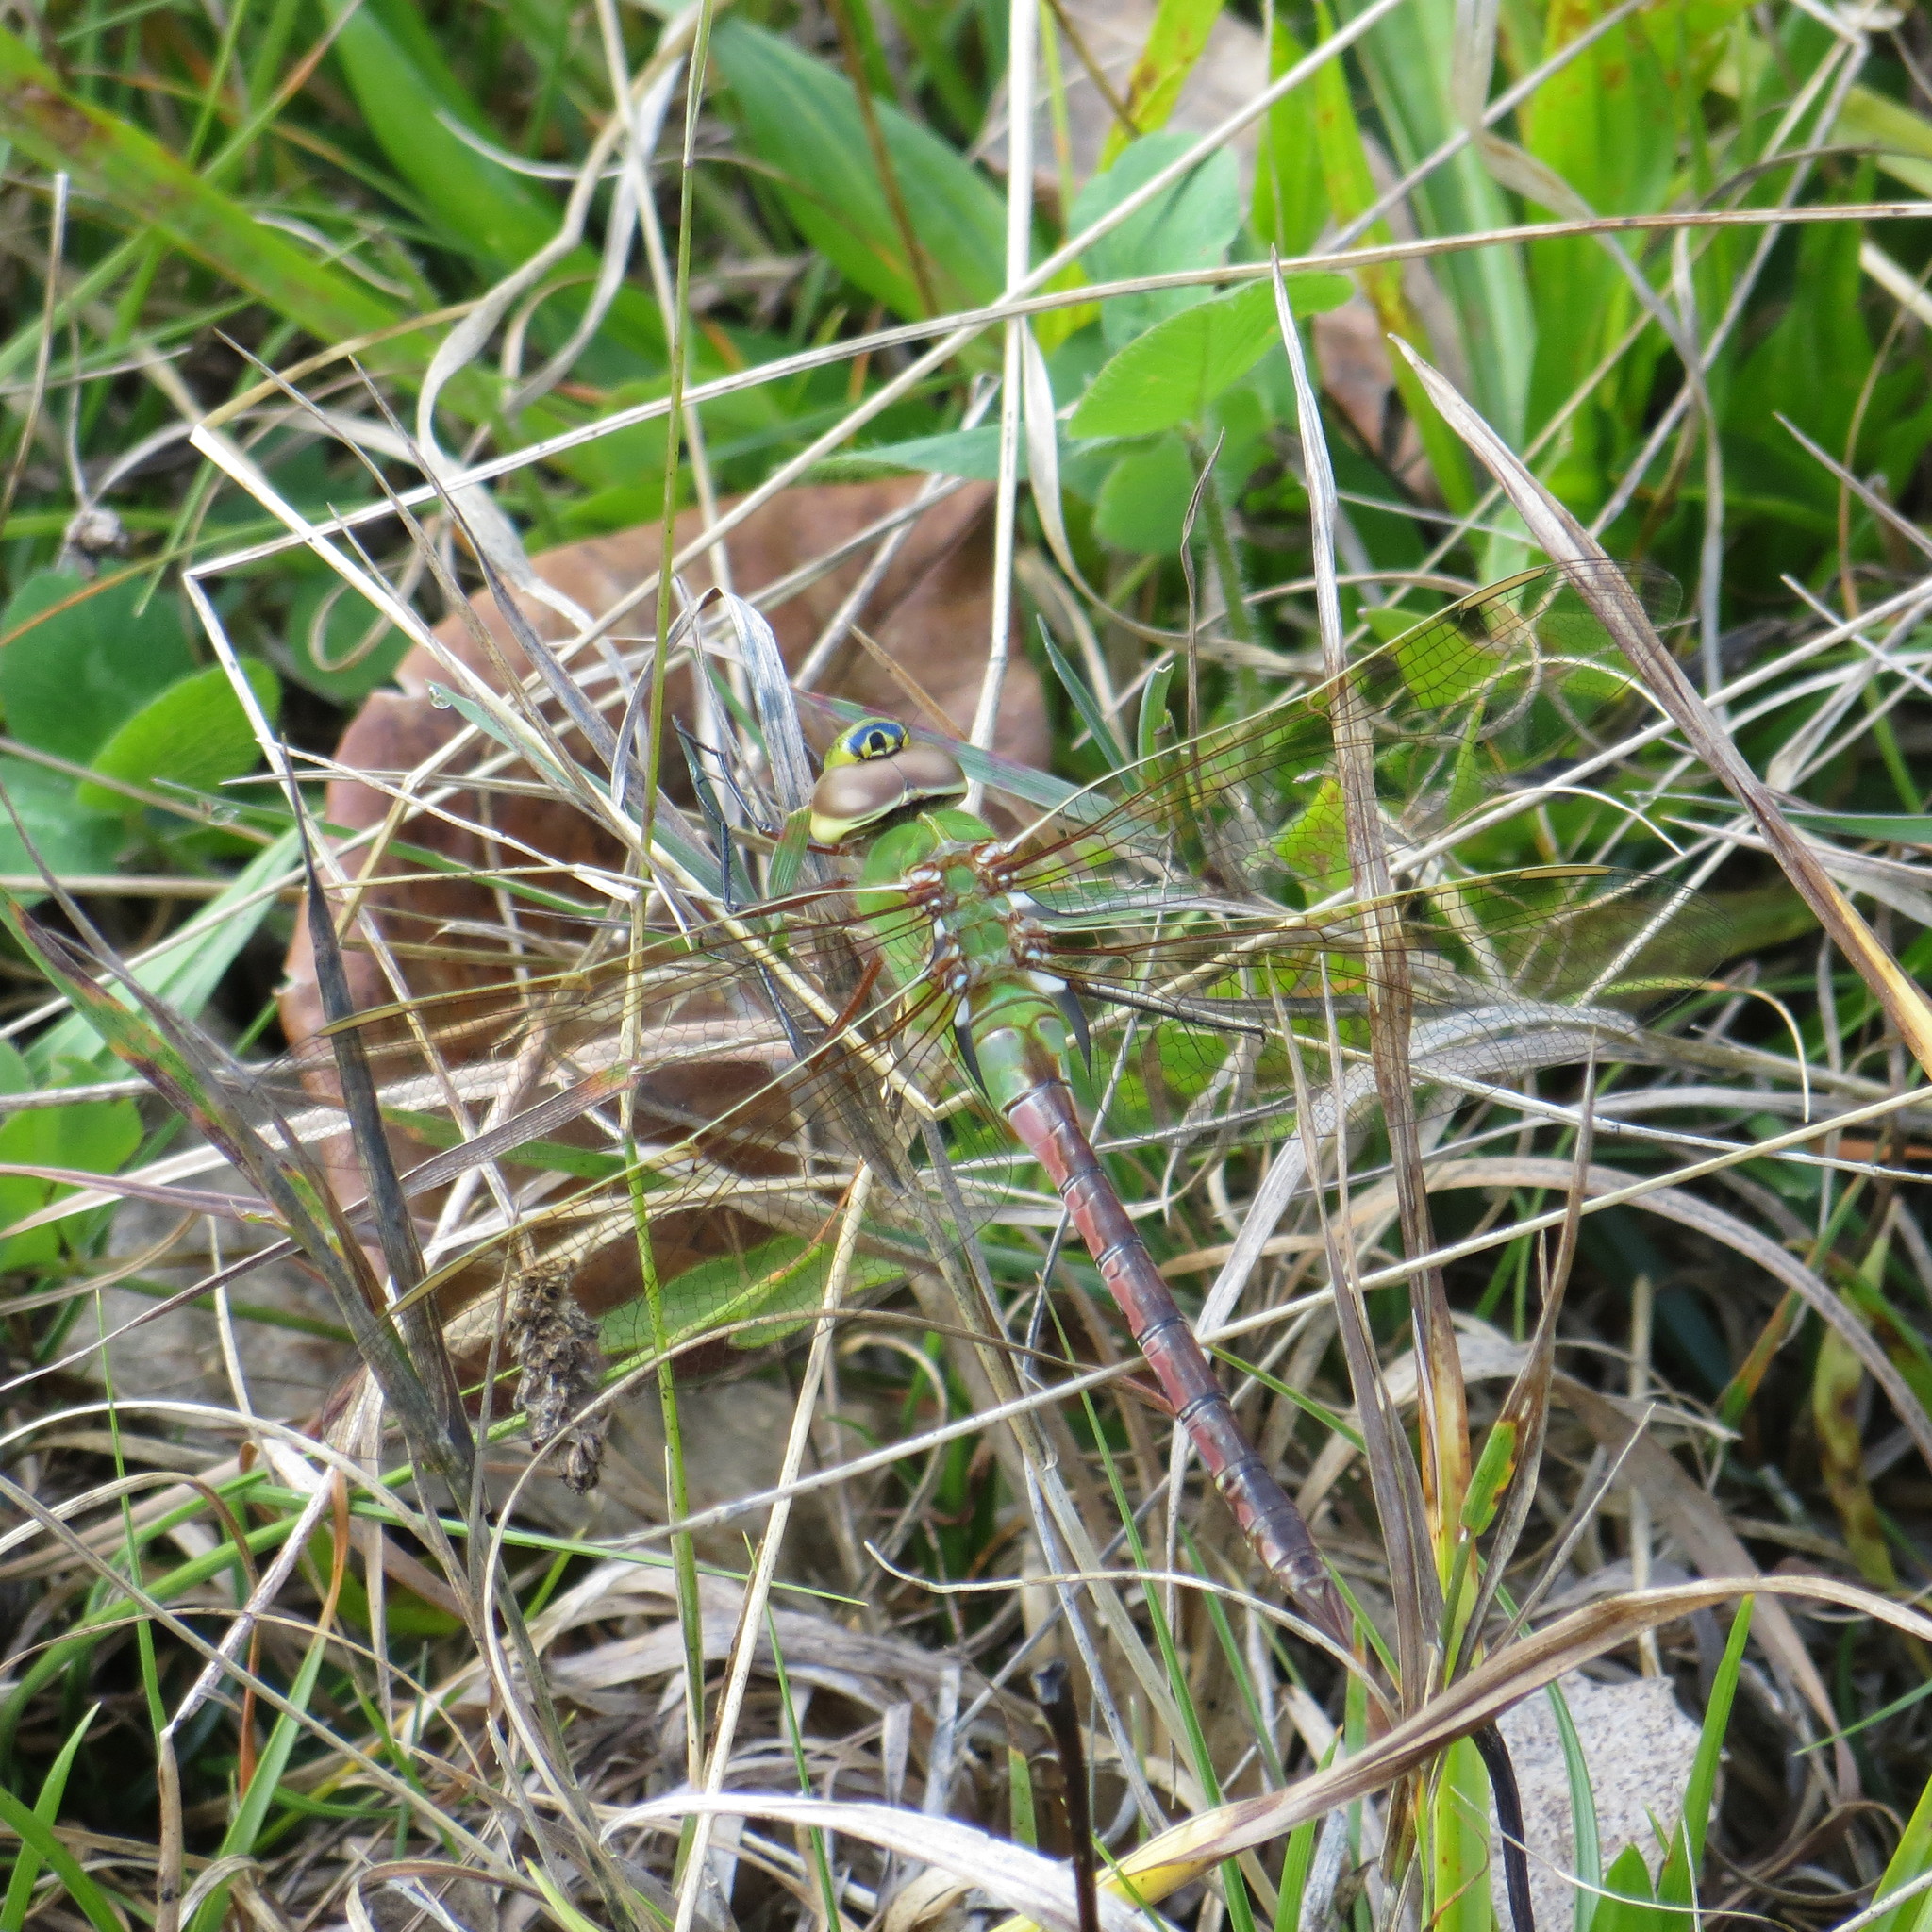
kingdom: Animalia
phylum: Arthropoda
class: Insecta
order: Odonata
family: Aeshnidae
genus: Anax
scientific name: Anax junius
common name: Common green darner
